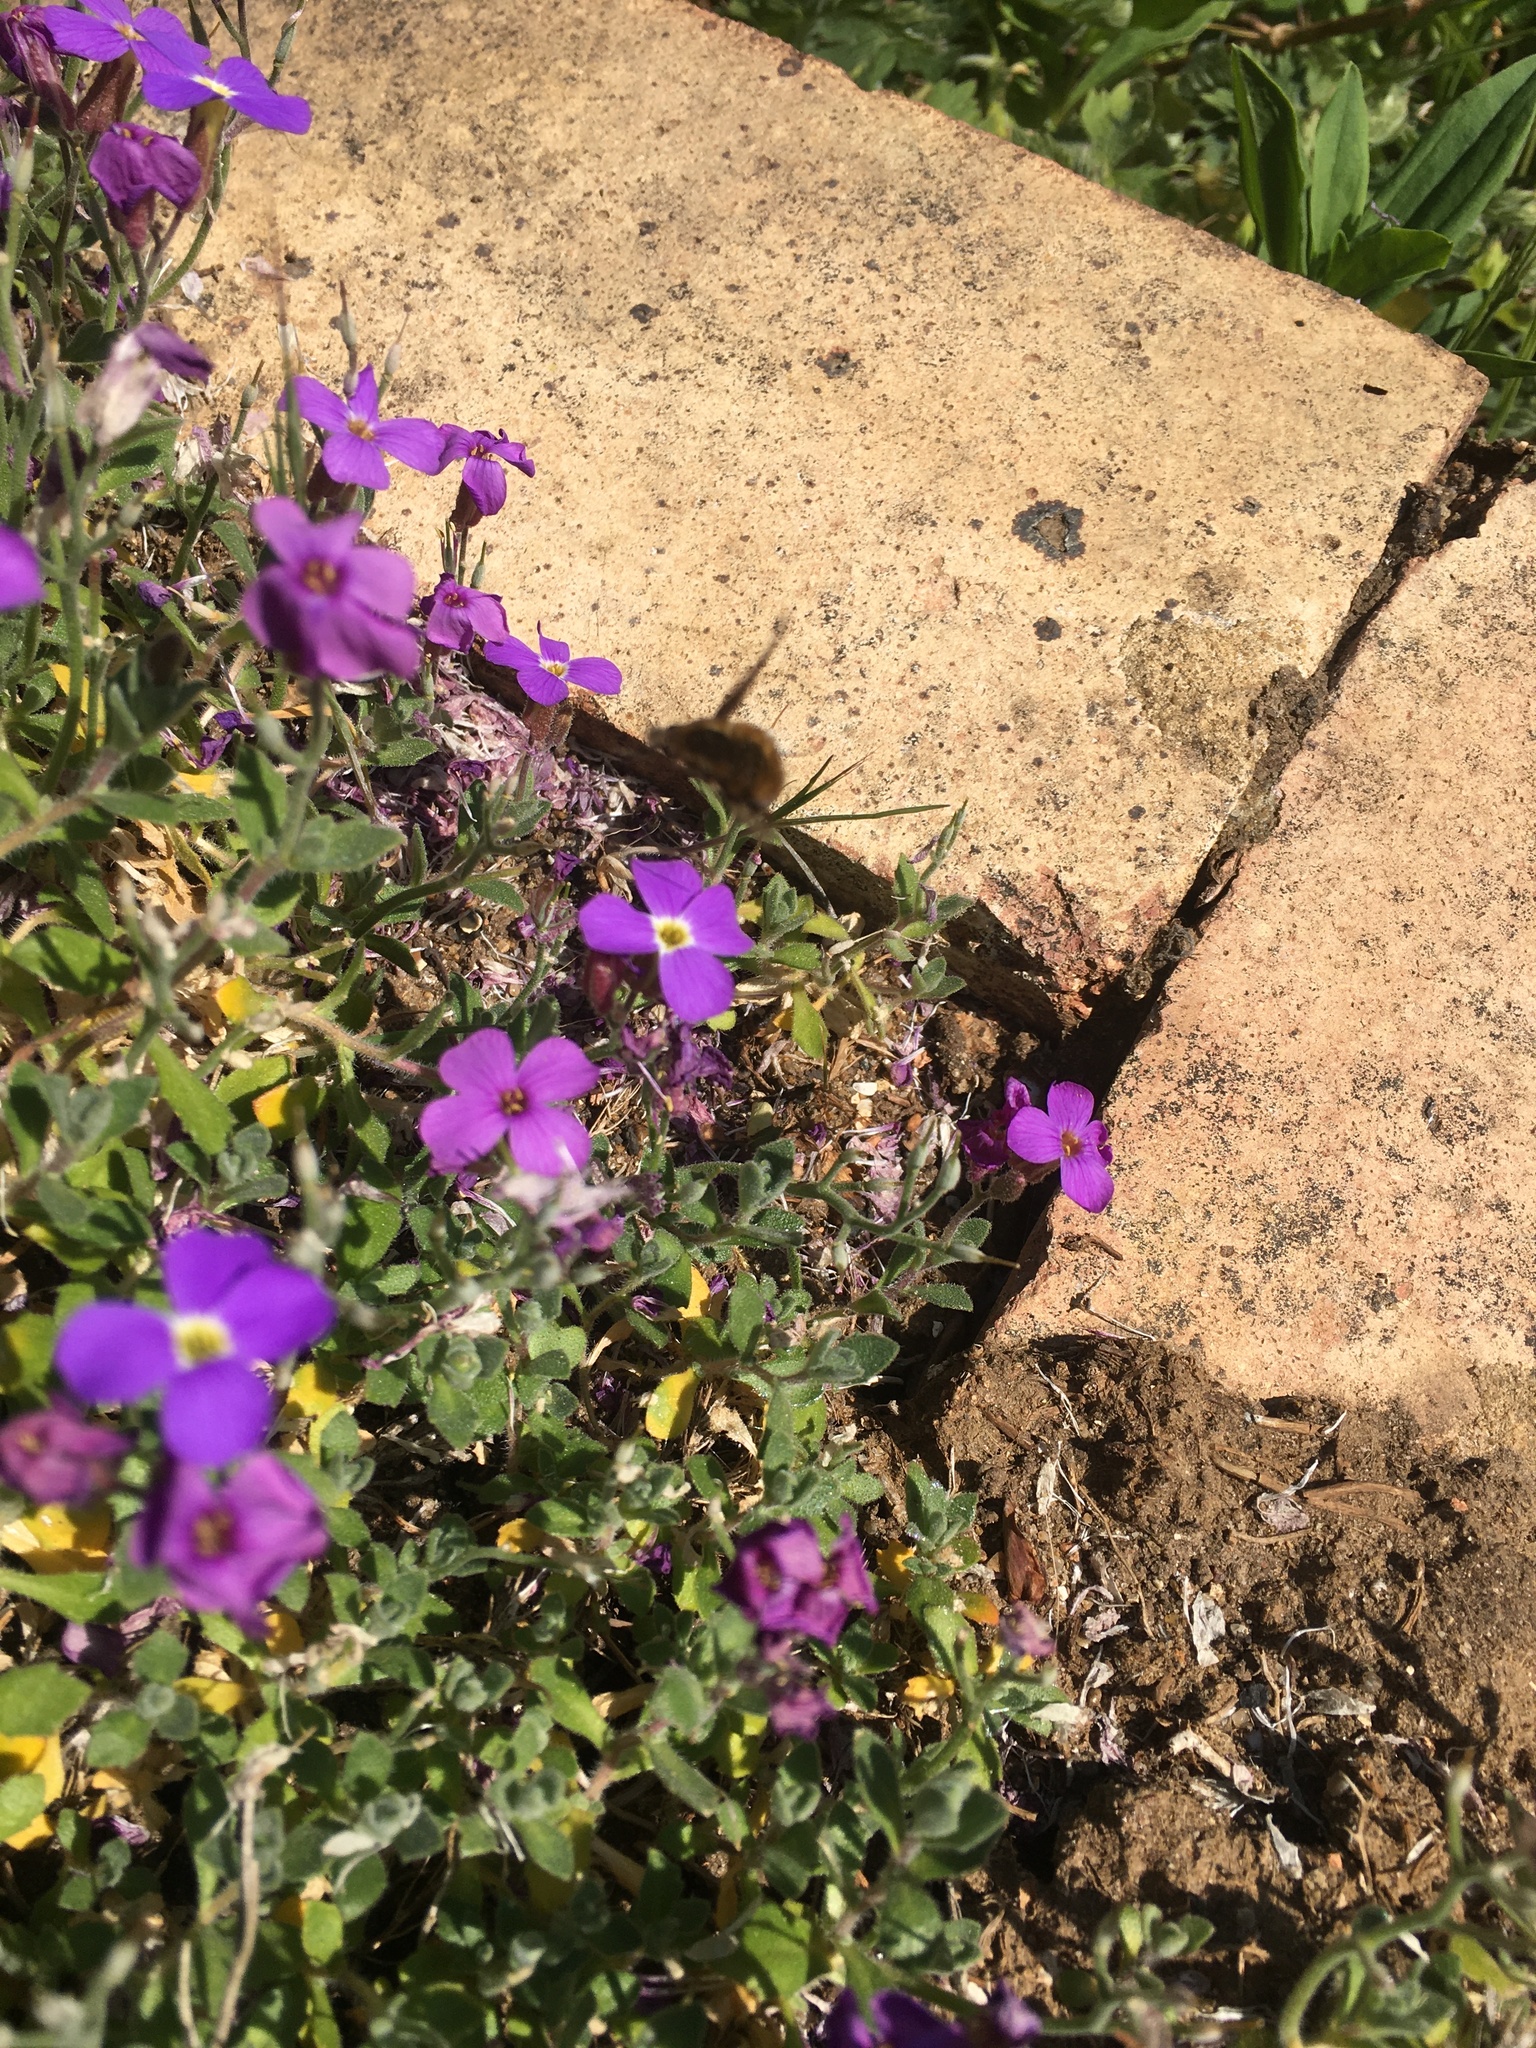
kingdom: Animalia
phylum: Arthropoda
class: Insecta
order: Diptera
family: Bombyliidae
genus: Bombylius
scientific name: Bombylius major
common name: Bee fly
